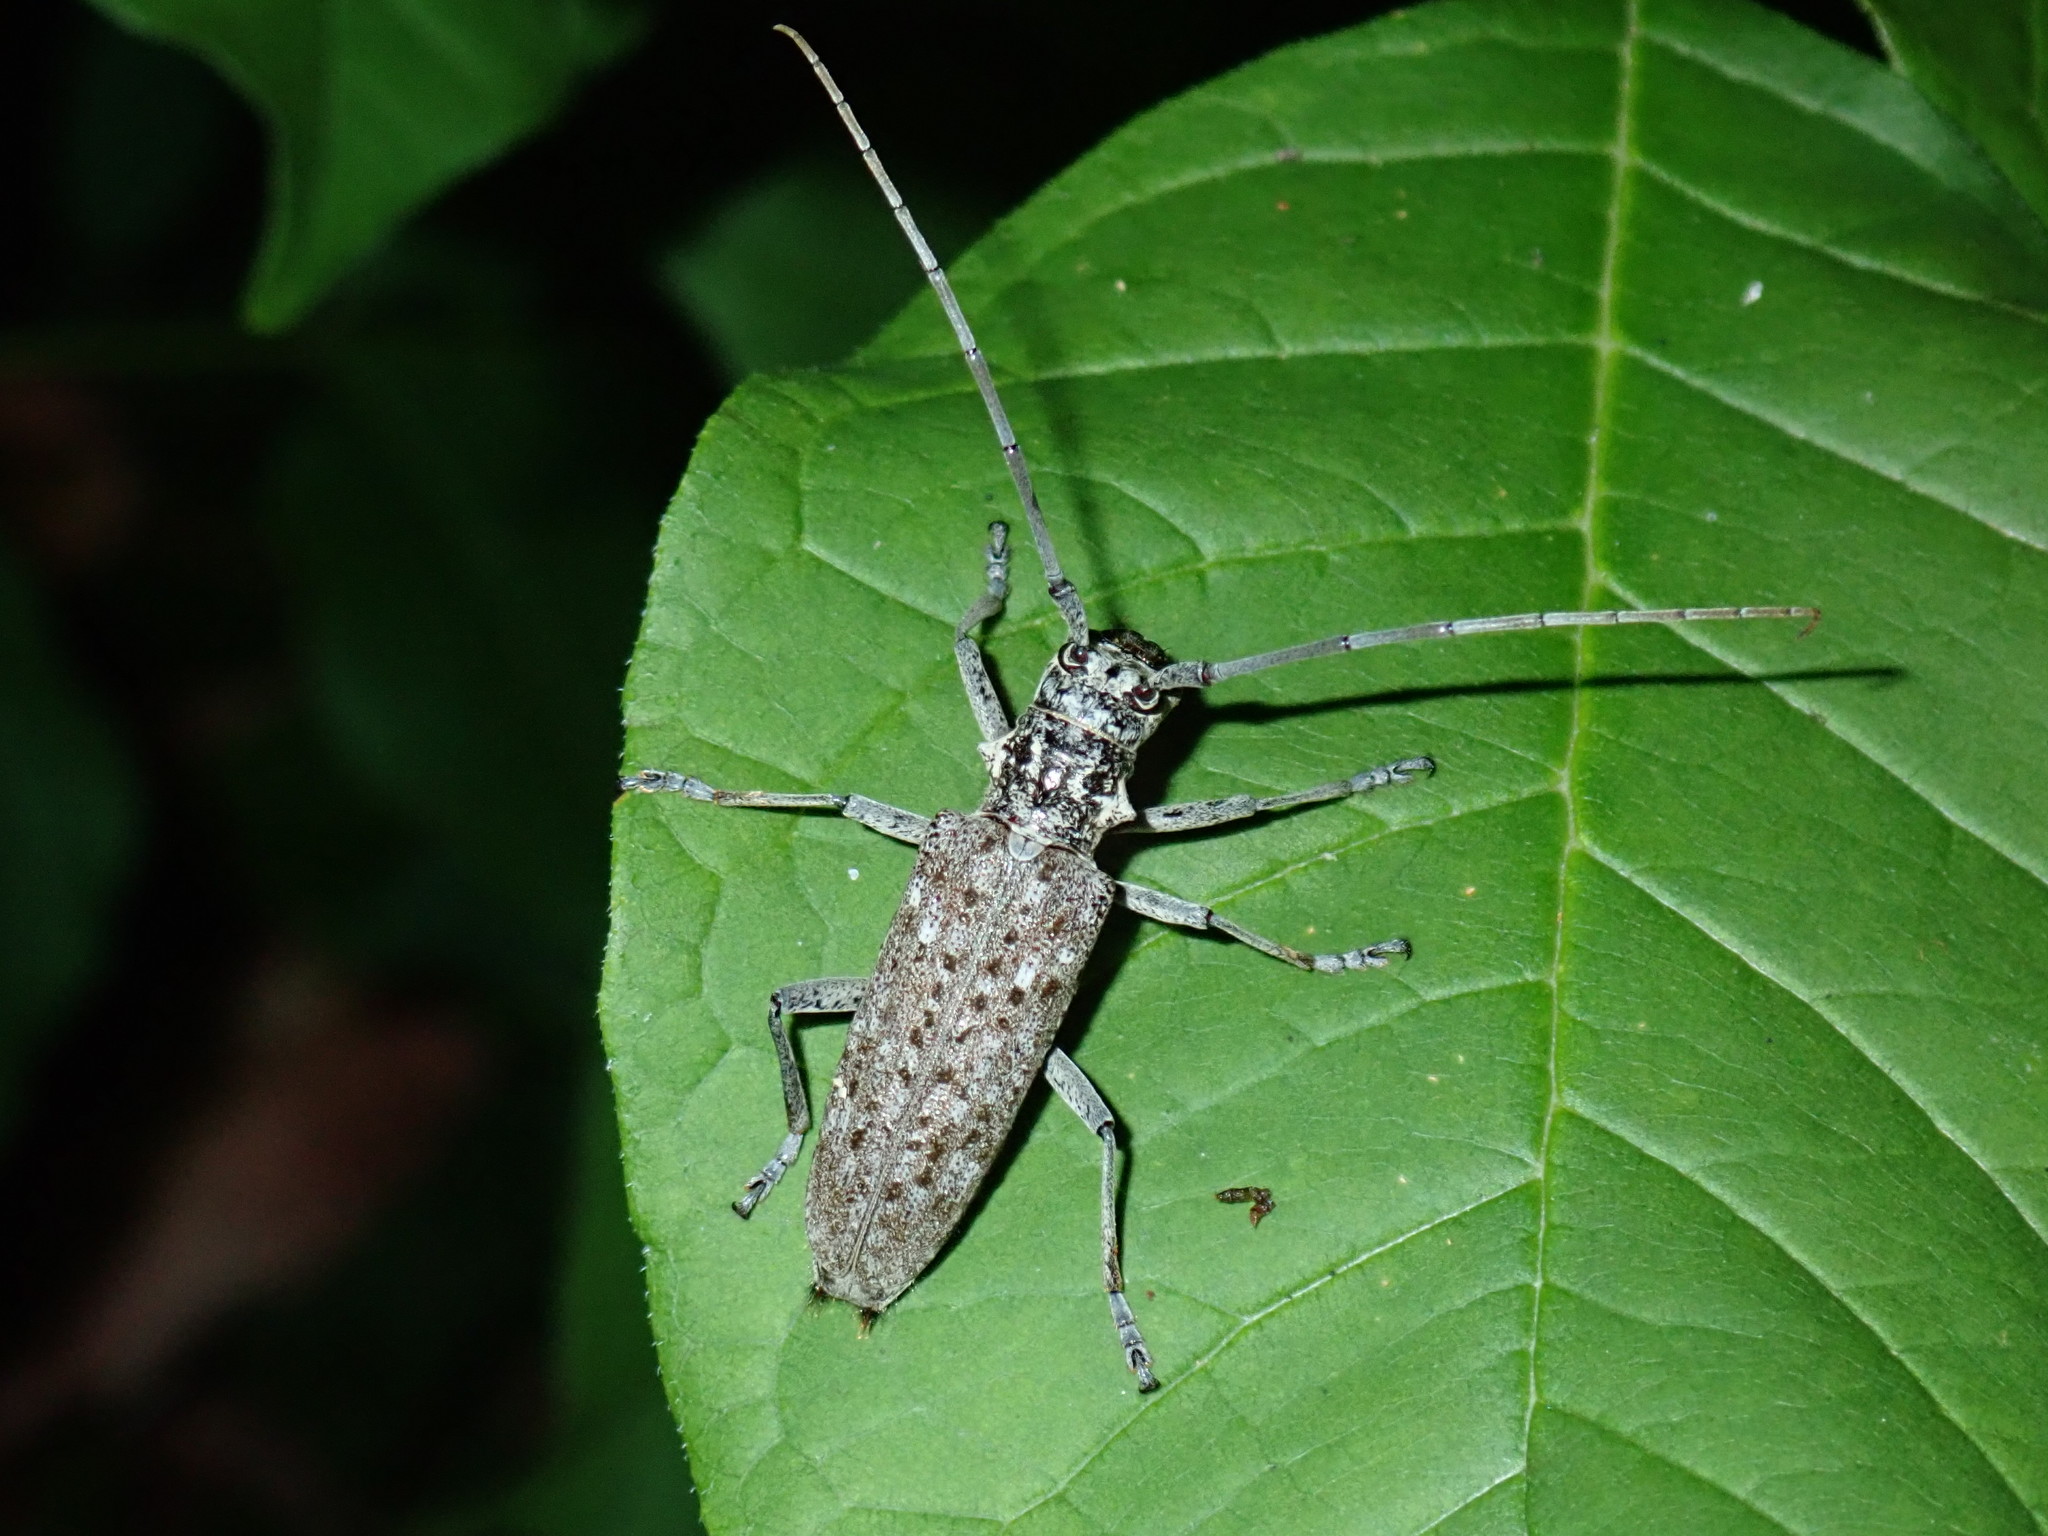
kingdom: Animalia
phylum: Arthropoda
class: Insecta
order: Coleoptera
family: Cerambycidae
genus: Monochamus
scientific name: Monochamus notatus
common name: Northeastern pine sawyer beetle
